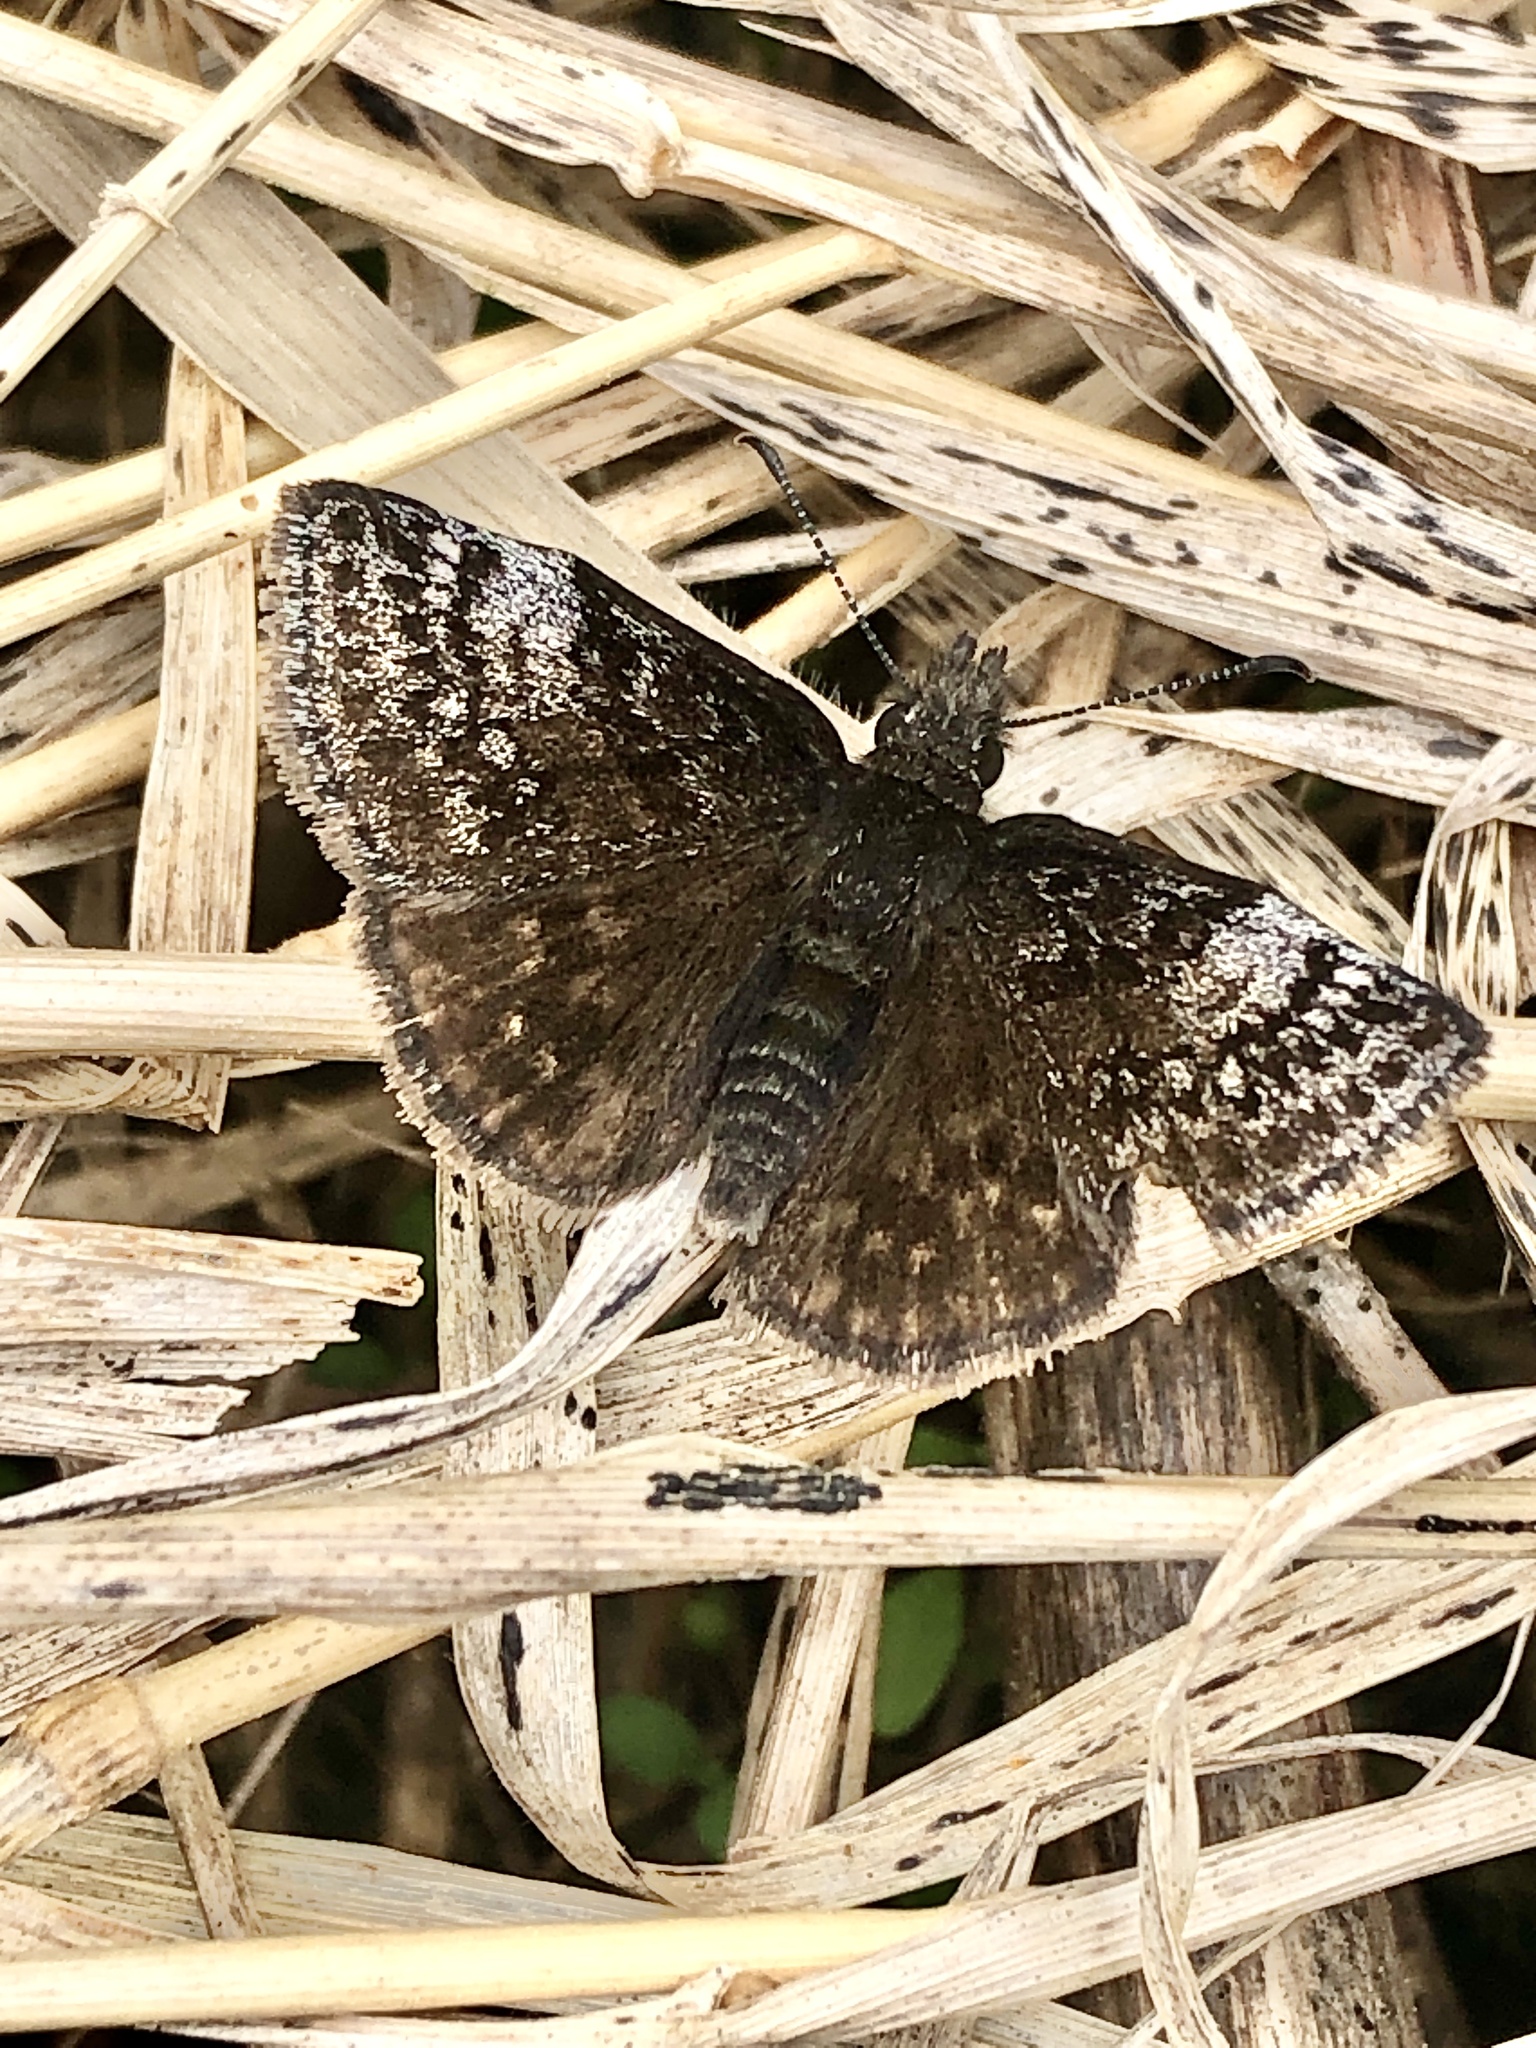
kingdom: Animalia
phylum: Arthropoda
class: Insecta
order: Lepidoptera
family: Hesperiidae
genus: Erynnis
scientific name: Erynnis icelus
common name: Dreamy duskywing
